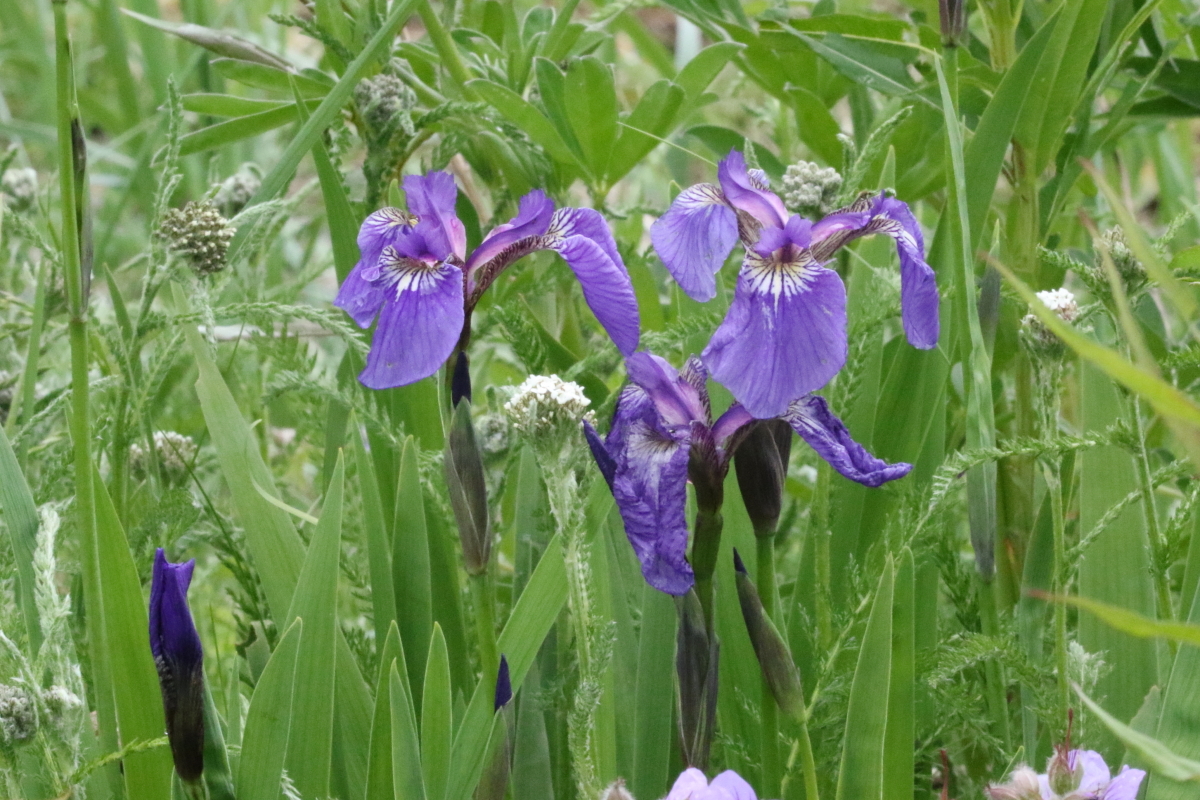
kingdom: Plantae
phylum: Tracheophyta
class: Liliopsida
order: Asparagales
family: Iridaceae
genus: Iris
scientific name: Iris setosa
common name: Arctic blue flag
